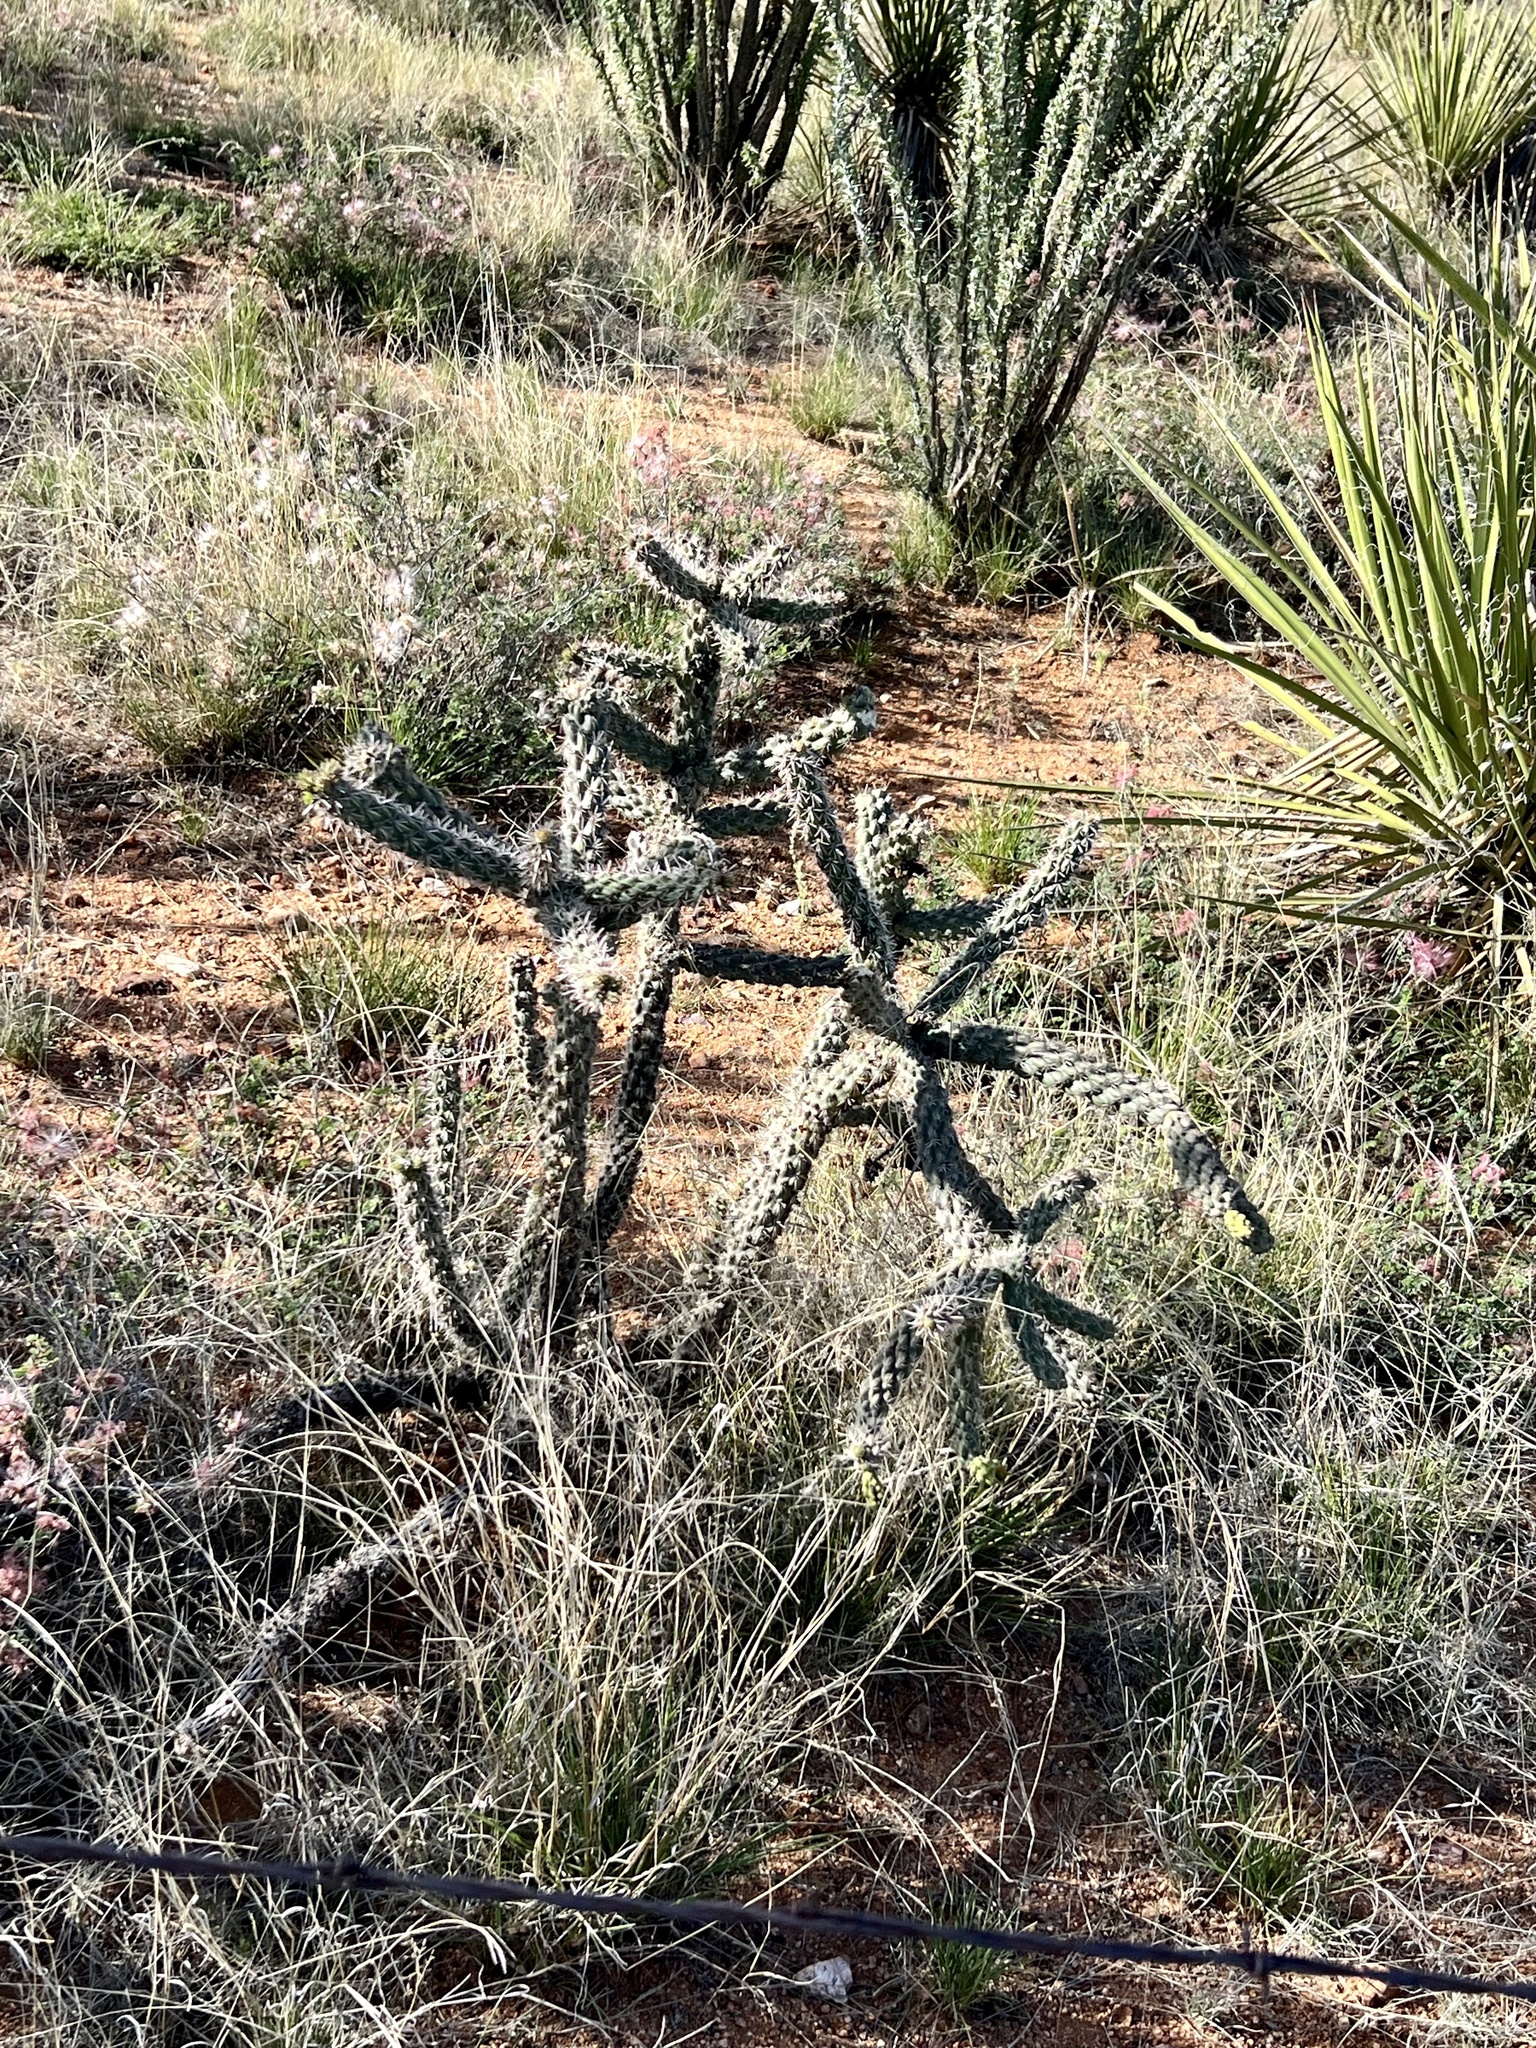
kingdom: Plantae
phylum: Tracheophyta
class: Magnoliopsida
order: Caryophyllales
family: Cactaceae
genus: Cylindropuntia
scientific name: Cylindropuntia imbricata
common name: Candelabrum cactus
